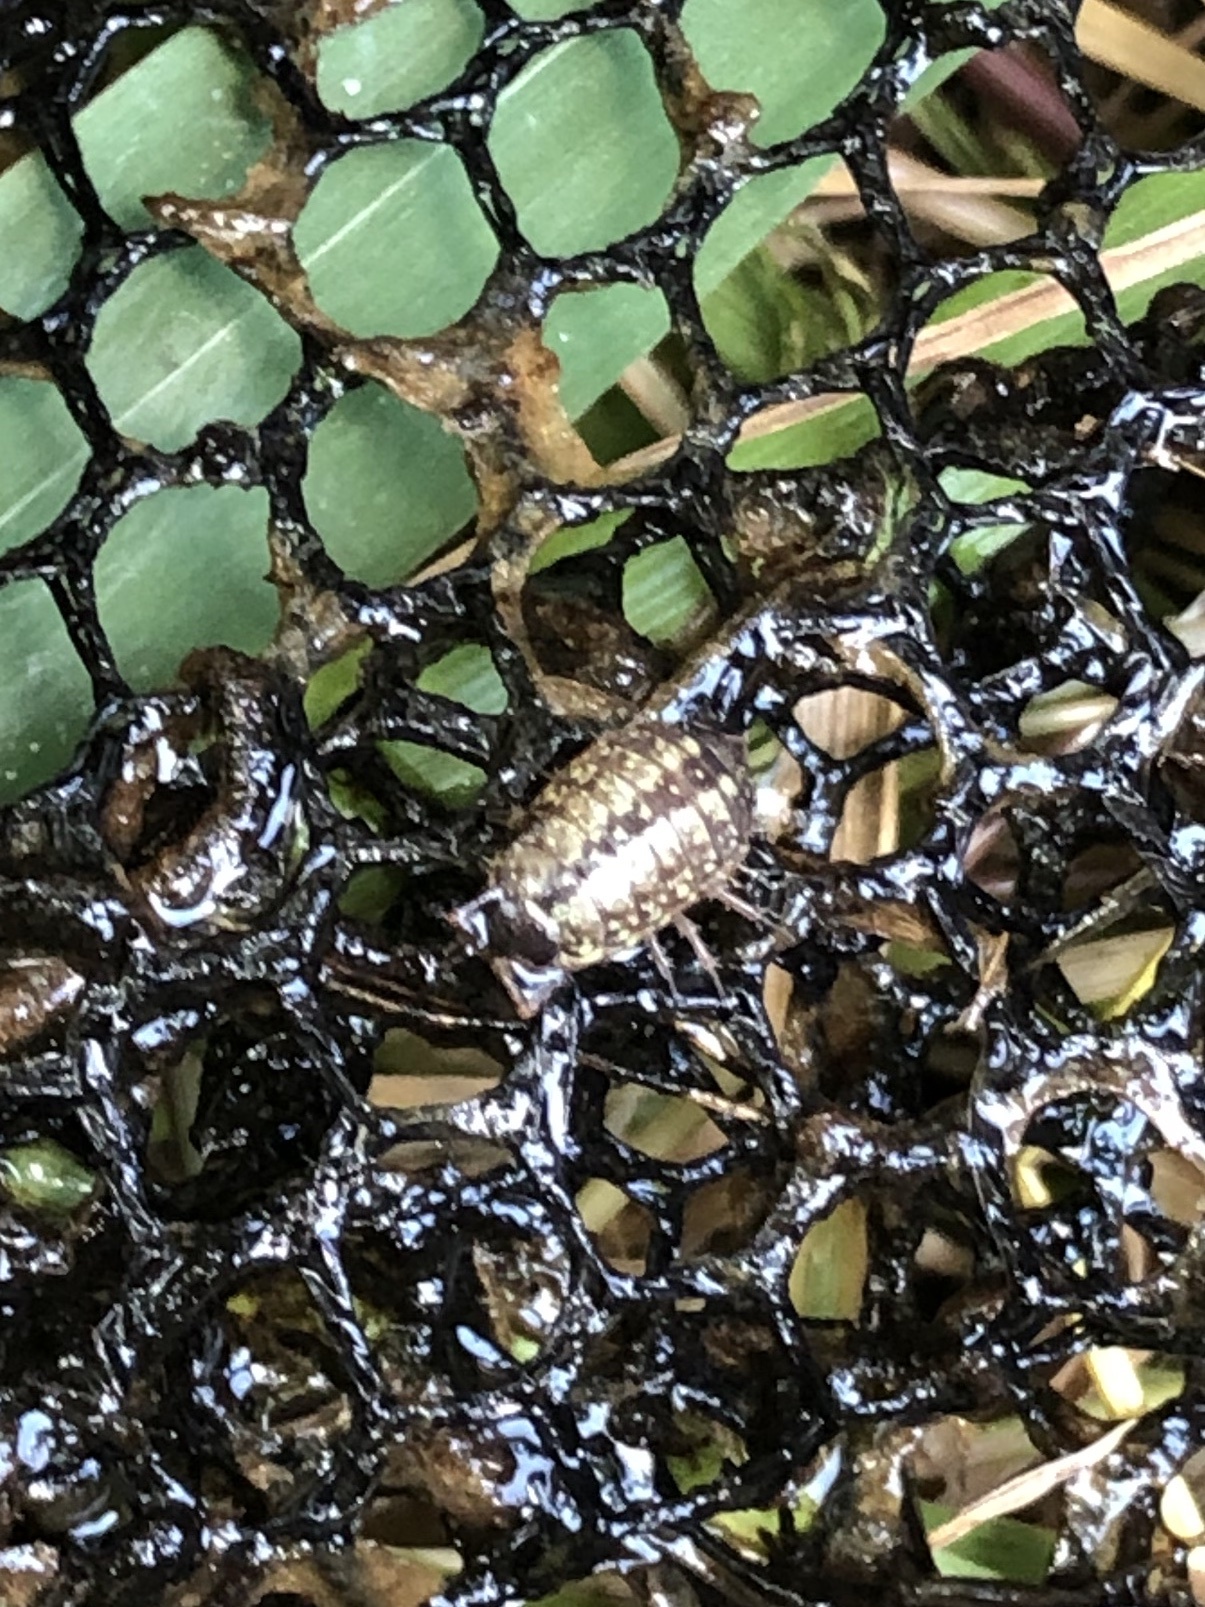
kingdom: Animalia
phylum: Arthropoda
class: Malacostraca
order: Isopoda
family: Philosciidae
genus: Philoscia
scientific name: Philoscia muscorum
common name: Common striped woodlouse
